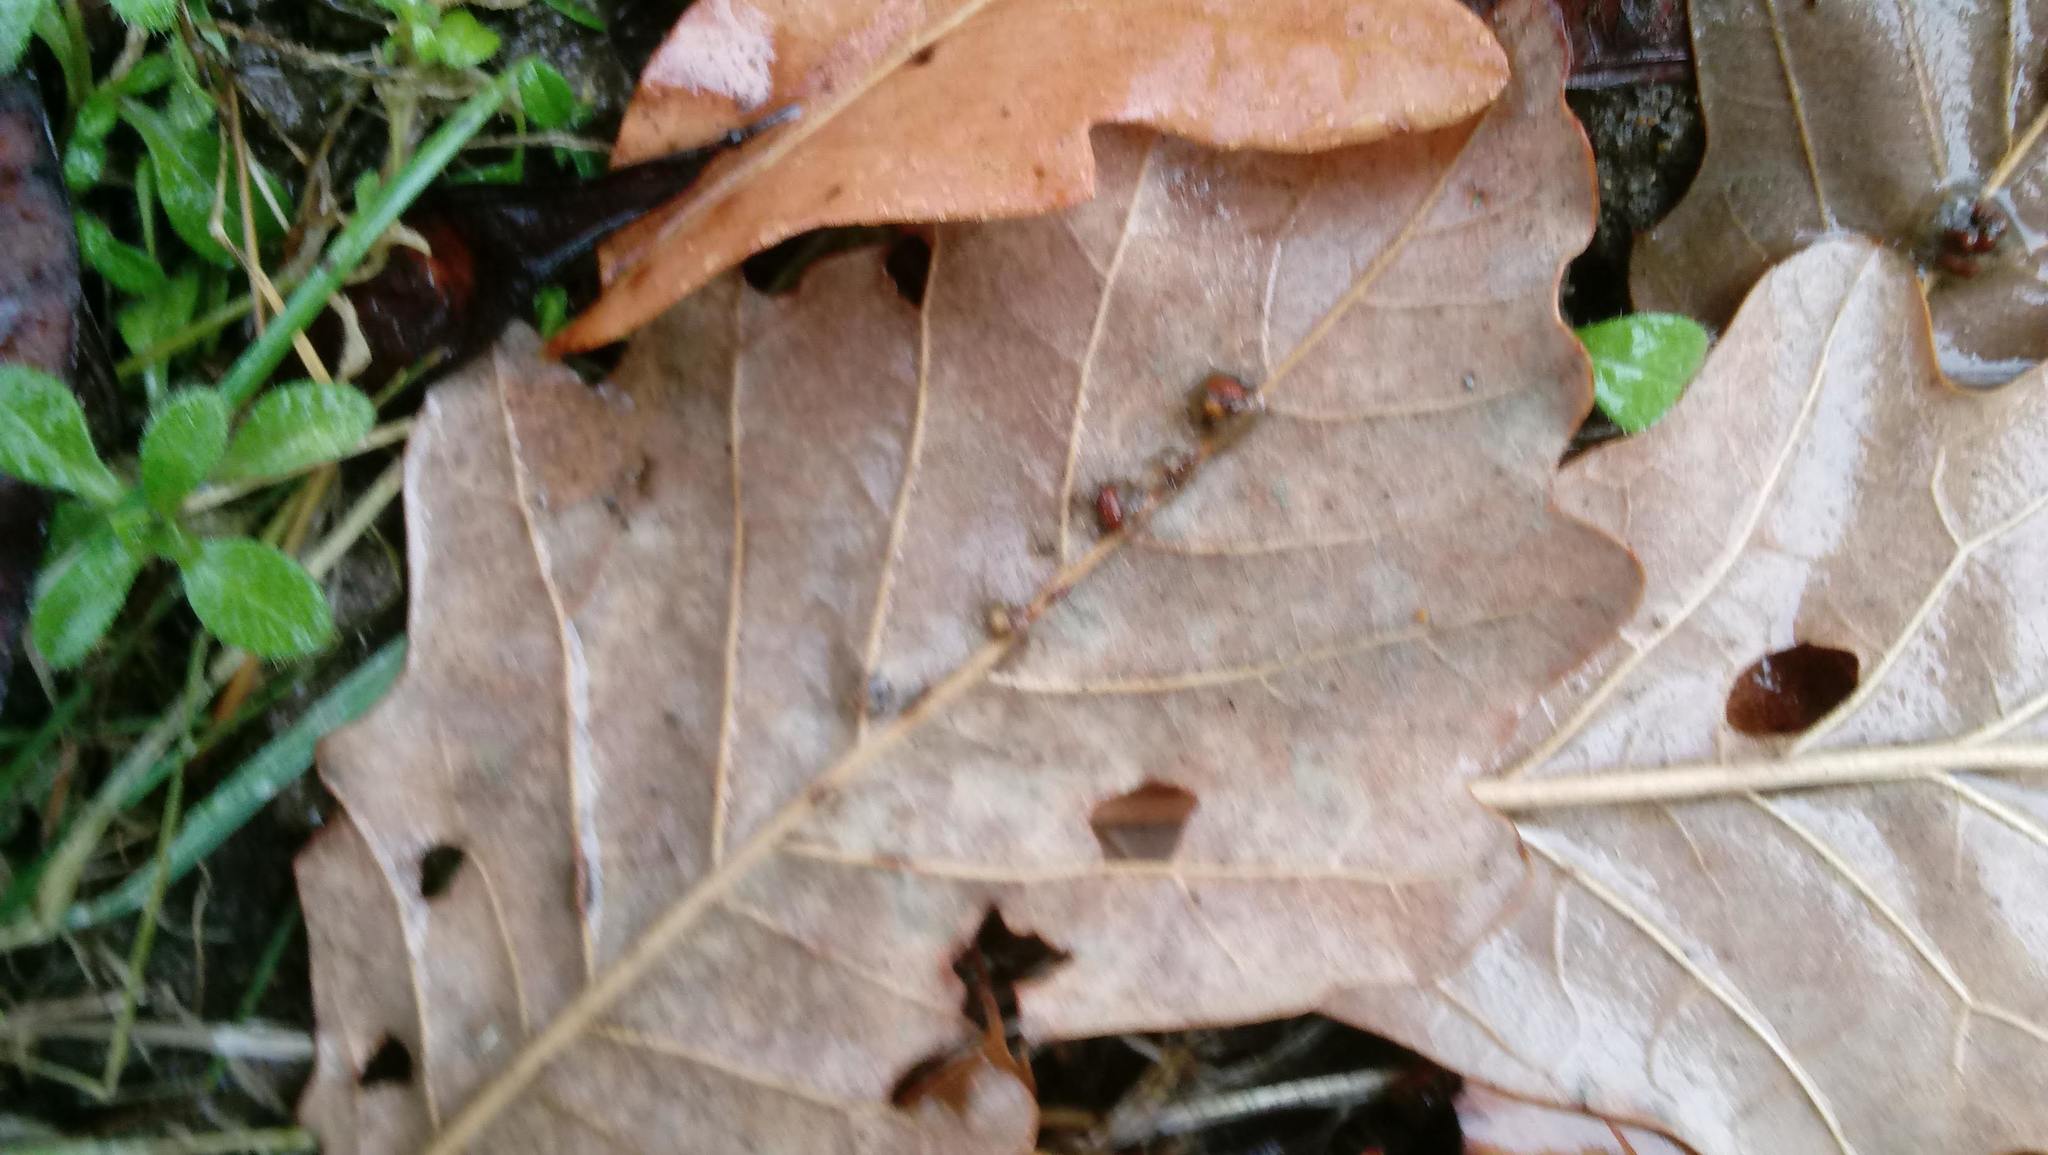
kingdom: Animalia
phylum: Arthropoda
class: Insecta
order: Hymenoptera
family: Cynipidae
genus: Andricus
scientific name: Andricus Druon ignotum
